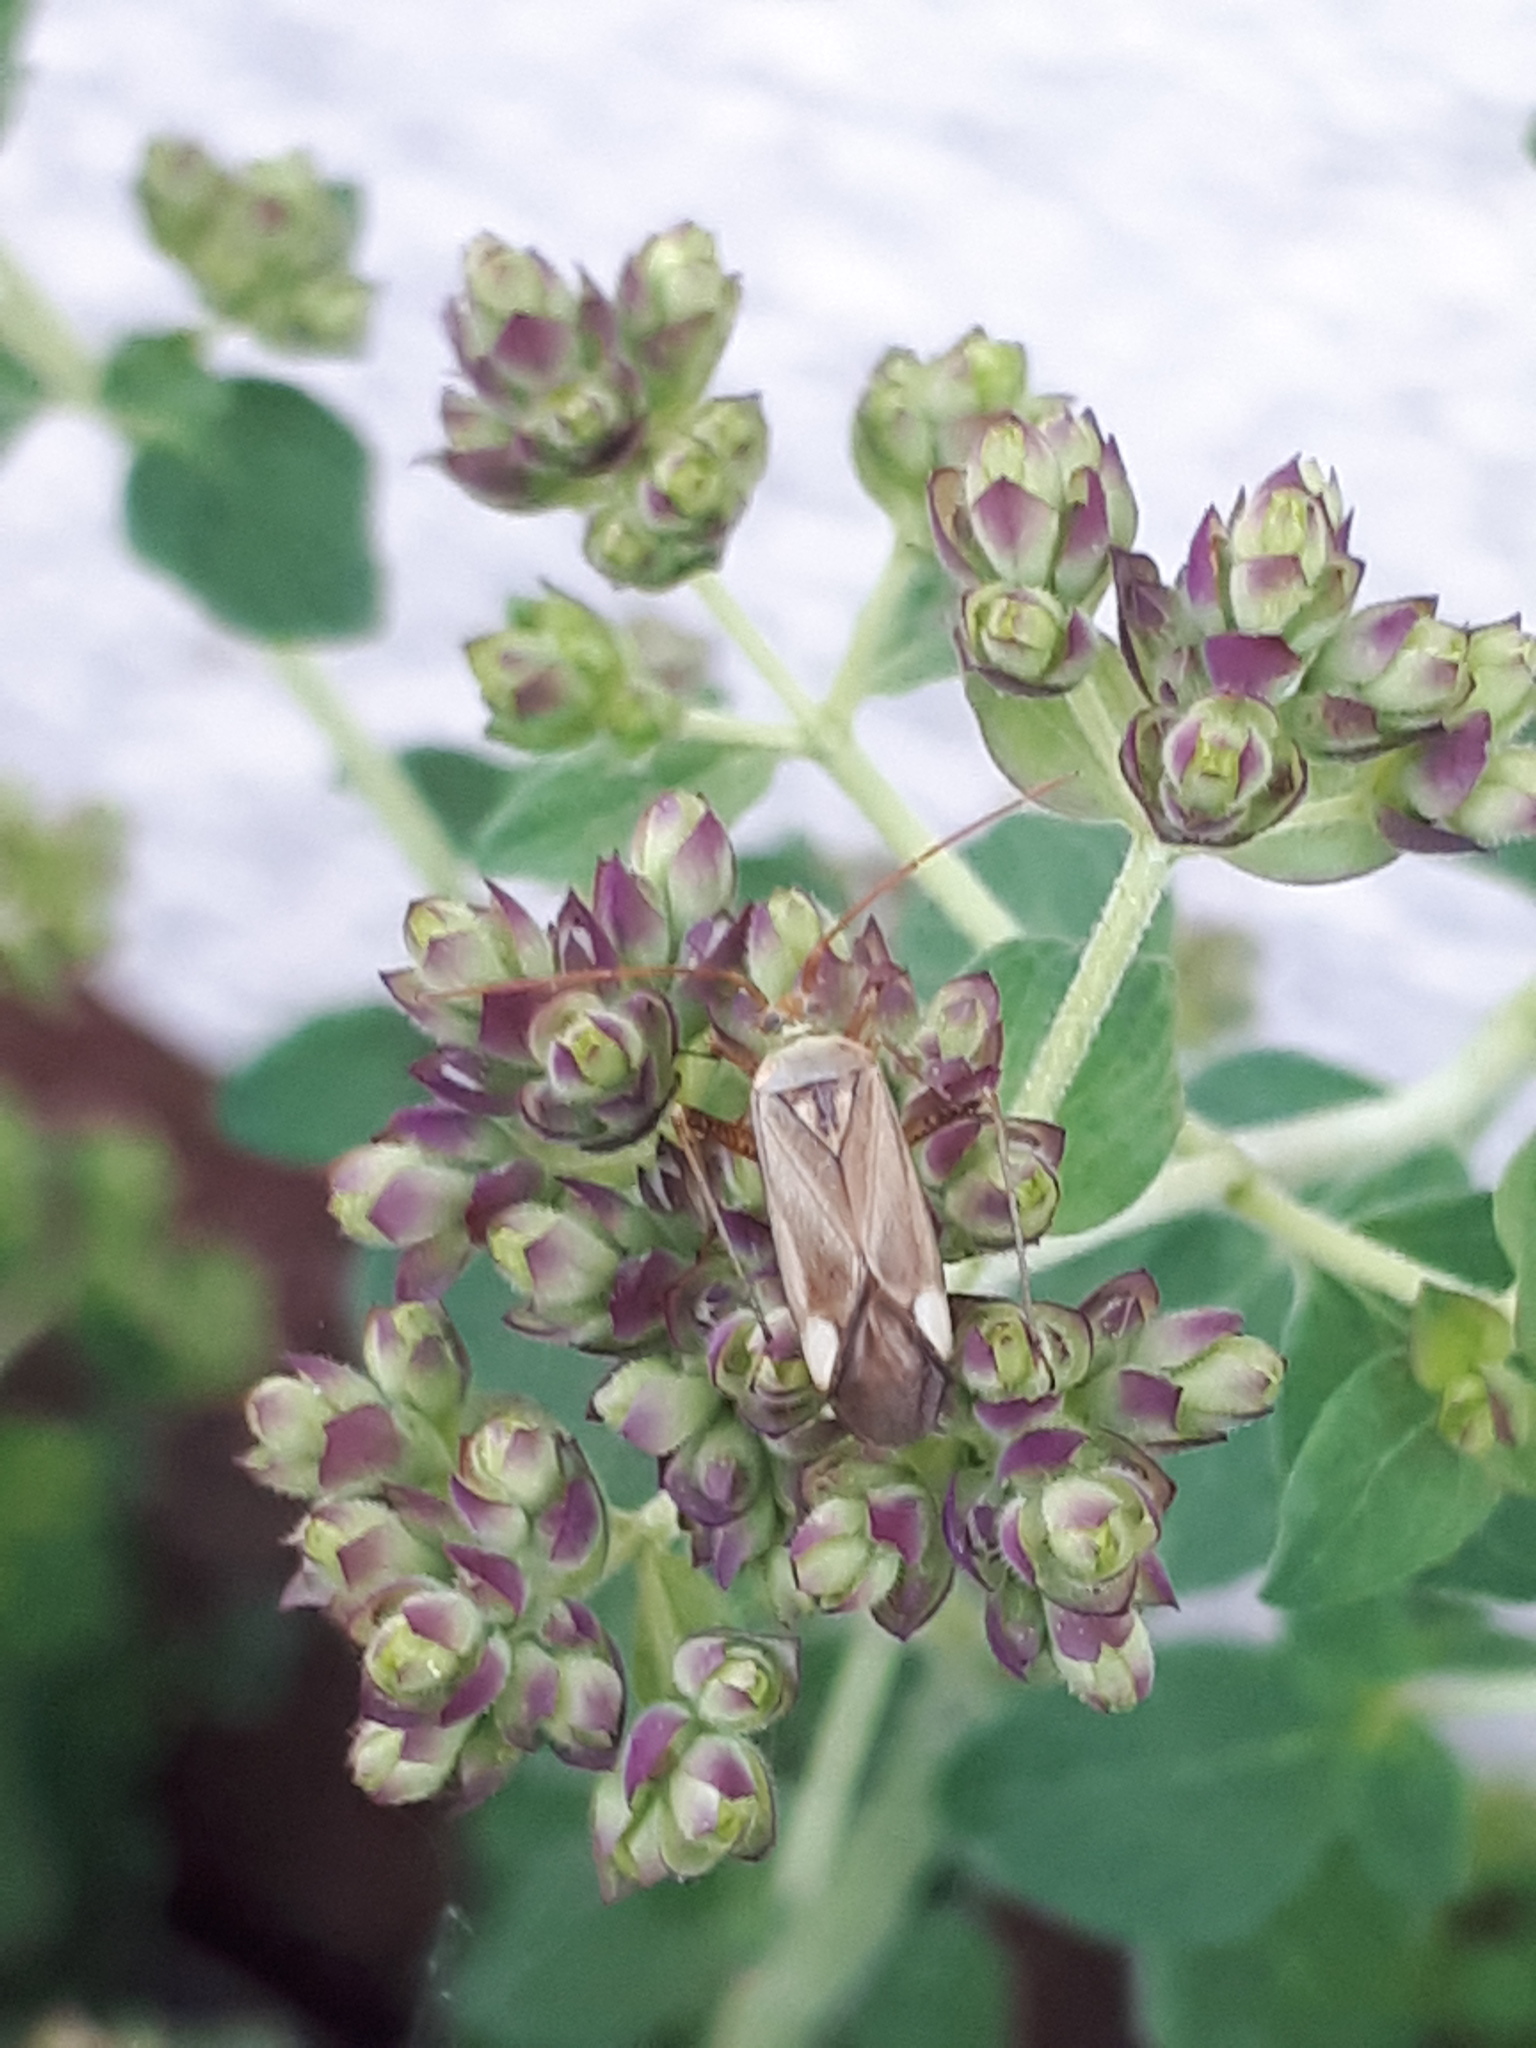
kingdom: Animalia
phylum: Arthropoda
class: Insecta
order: Hemiptera
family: Miridae
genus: Adelphocoris
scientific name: Adelphocoris lineolatus
